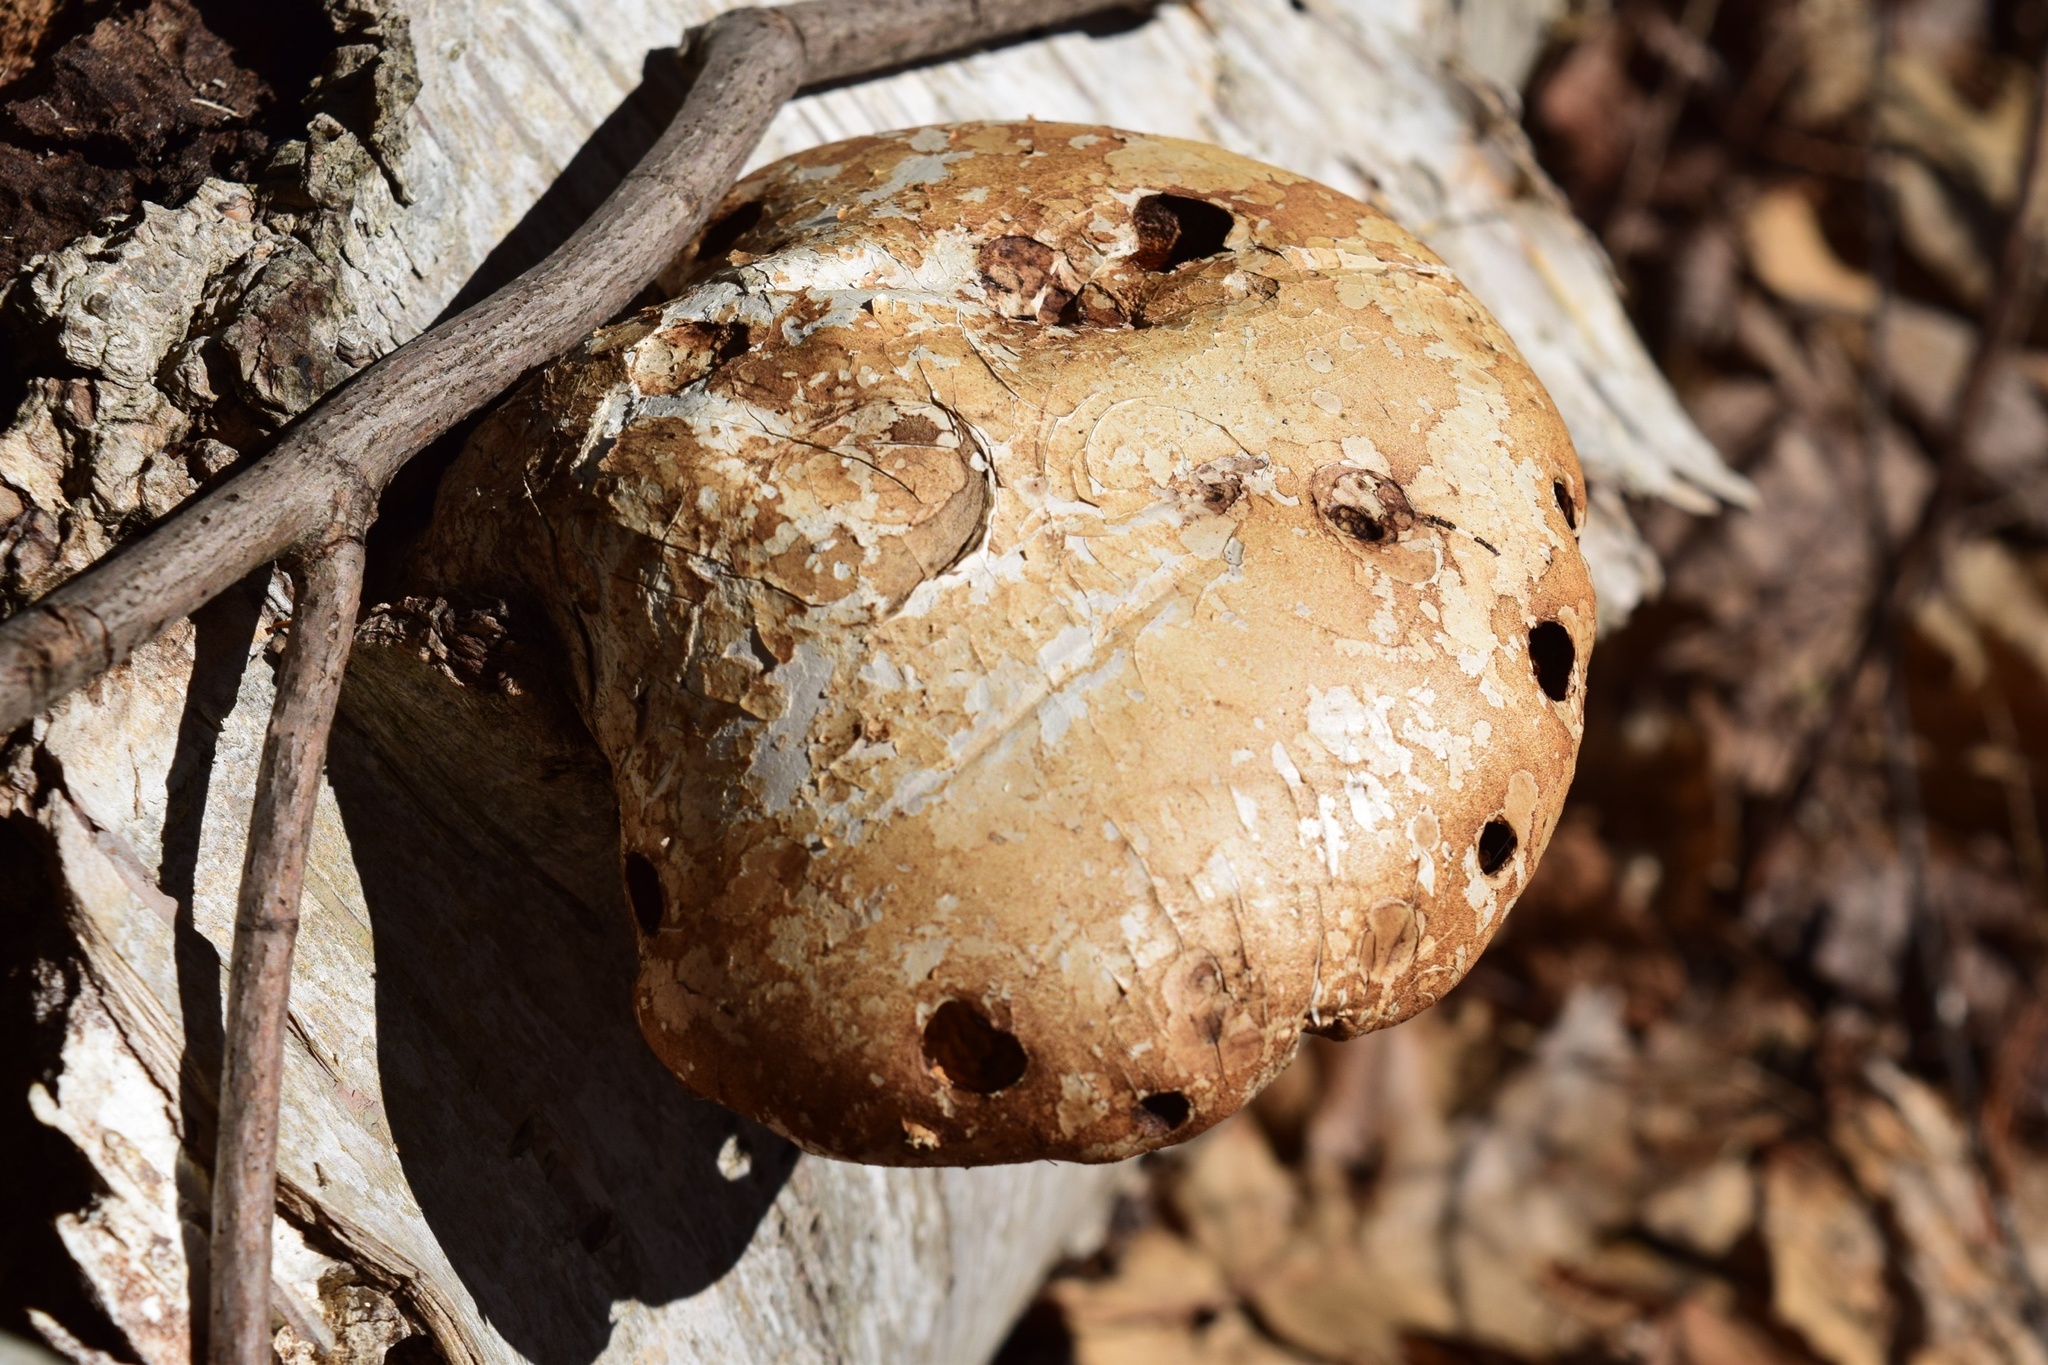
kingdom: Fungi
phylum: Basidiomycota
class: Agaricomycetes
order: Polyporales
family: Fomitopsidaceae
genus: Fomitopsis
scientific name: Fomitopsis betulina
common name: Birch polypore
